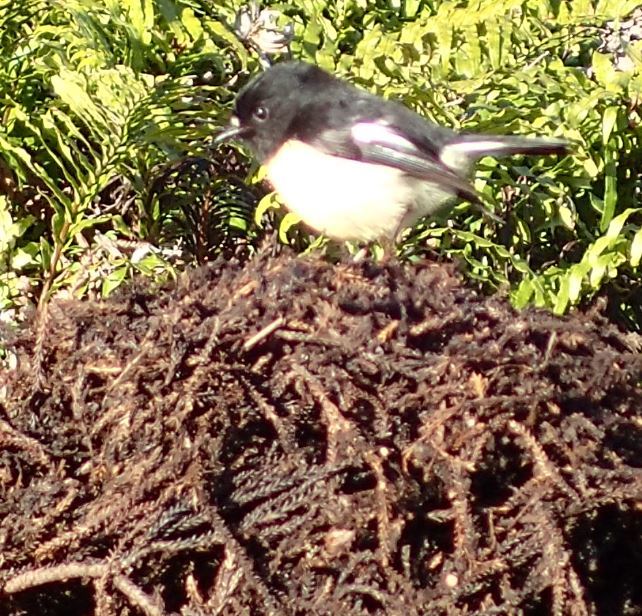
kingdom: Animalia
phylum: Chordata
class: Aves
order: Passeriformes
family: Petroicidae
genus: Petroica
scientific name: Petroica macrocephala
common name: Tomtit
